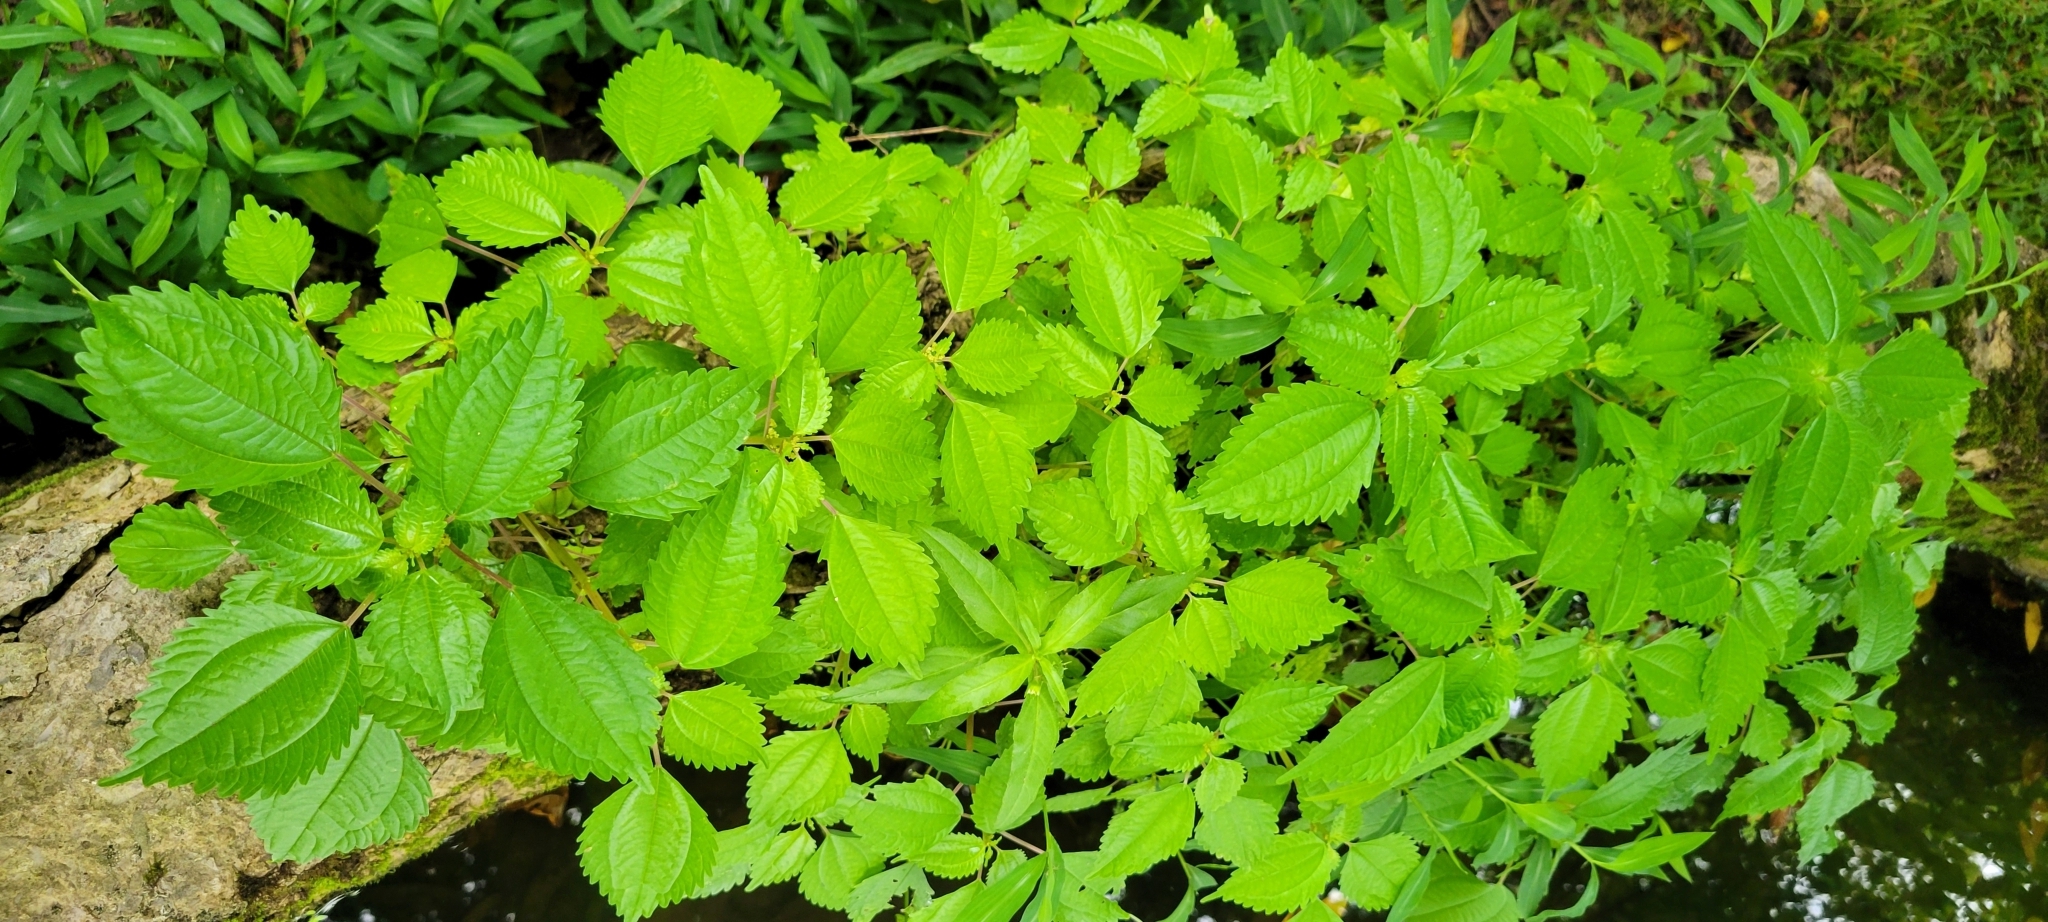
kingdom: Plantae
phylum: Tracheophyta
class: Magnoliopsida
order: Rosales
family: Urticaceae
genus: Pilea
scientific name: Pilea pumila
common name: Clearweed
